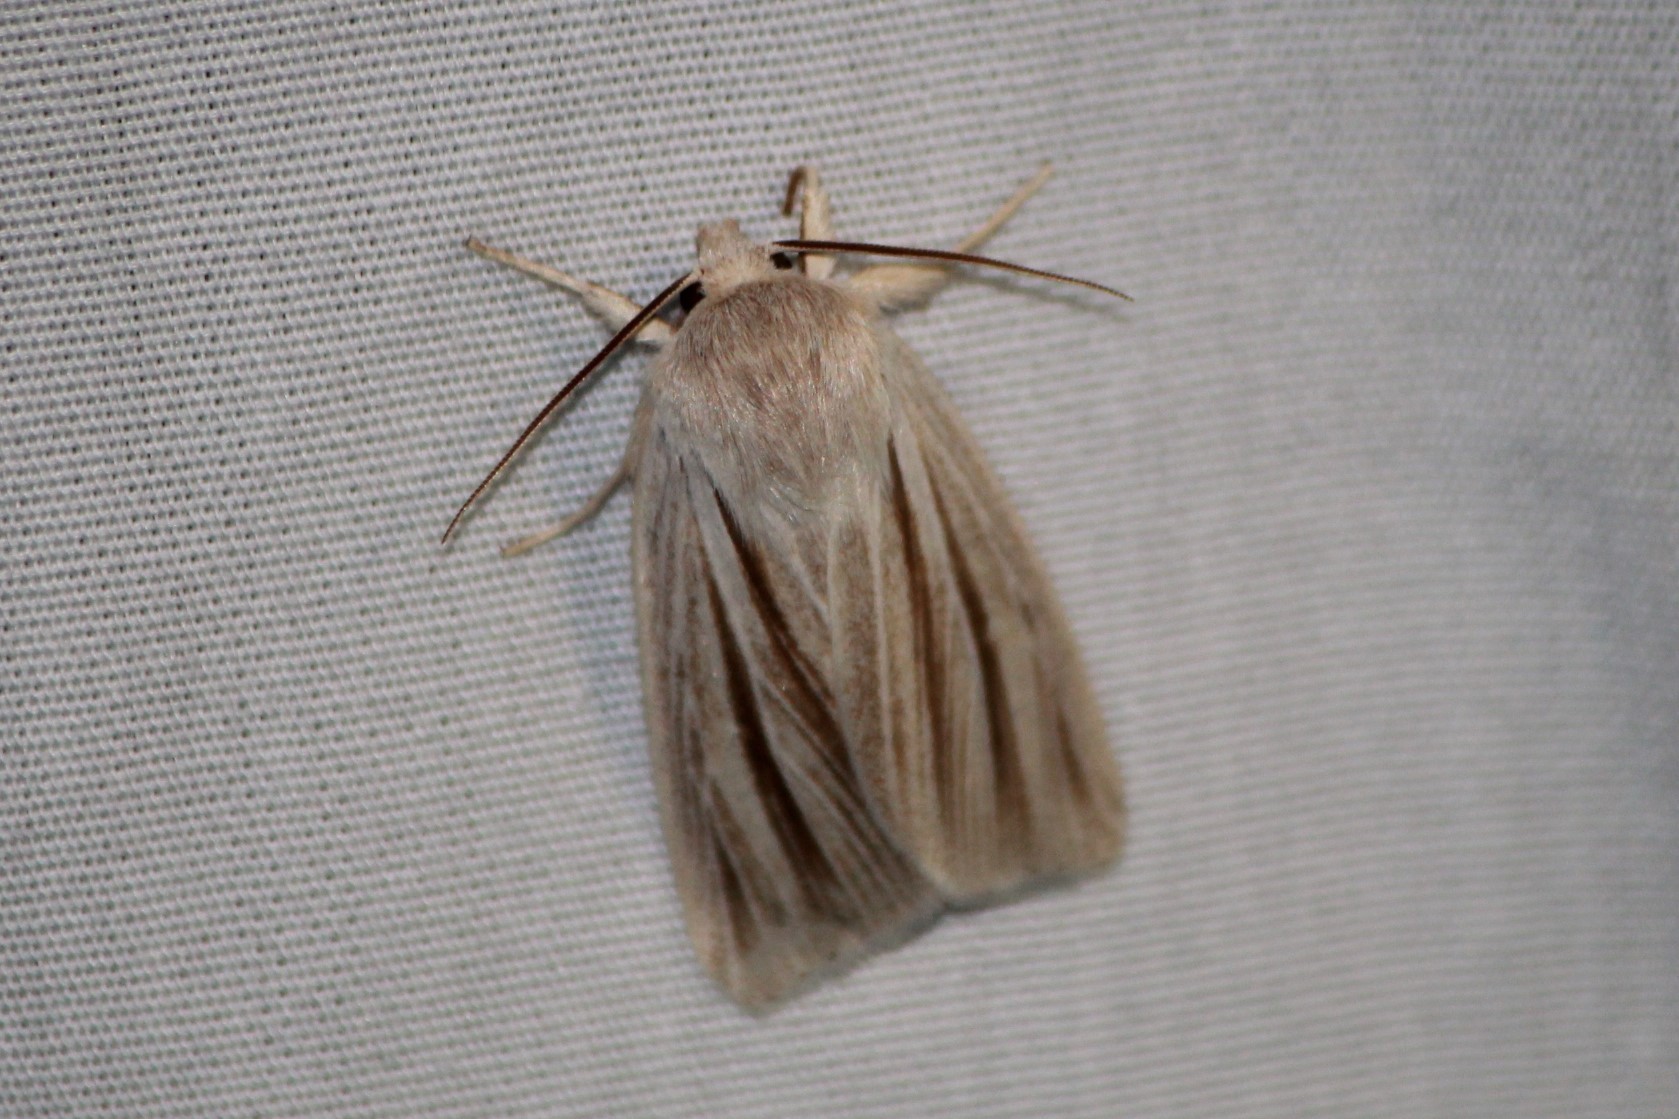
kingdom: Animalia
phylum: Arthropoda
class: Insecta
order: Lepidoptera
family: Noctuidae
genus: Acronicta
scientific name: Acronicta insularis
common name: Henry's marsh moth
